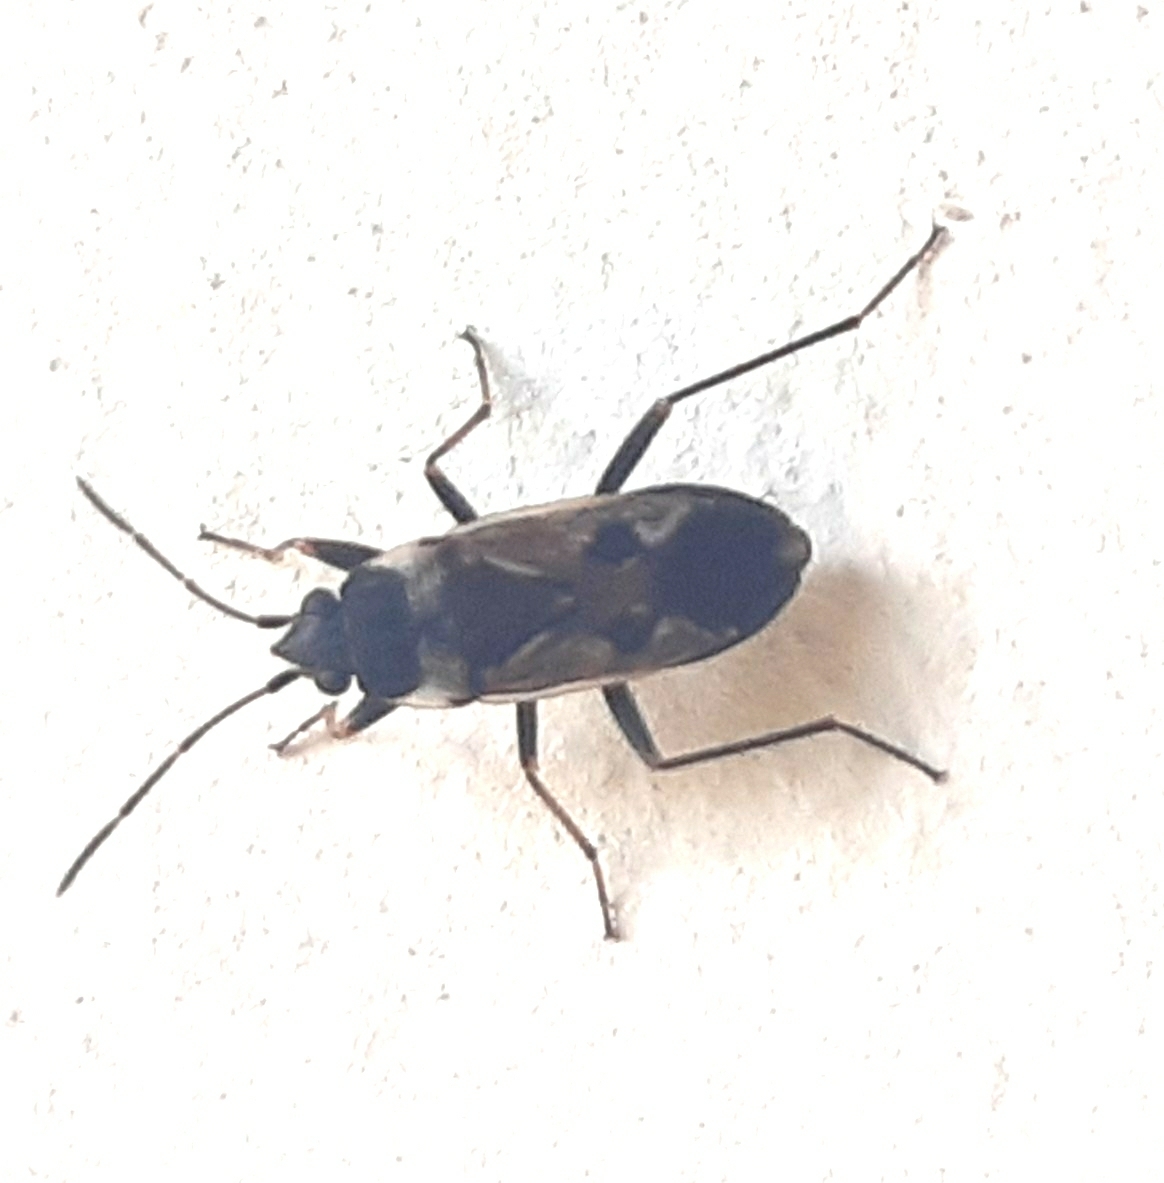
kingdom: Animalia
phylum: Arthropoda
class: Insecta
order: Hemiptera
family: Rhyparochromidae
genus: Rhyparochromus
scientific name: Rhyparochromus vulgaris
